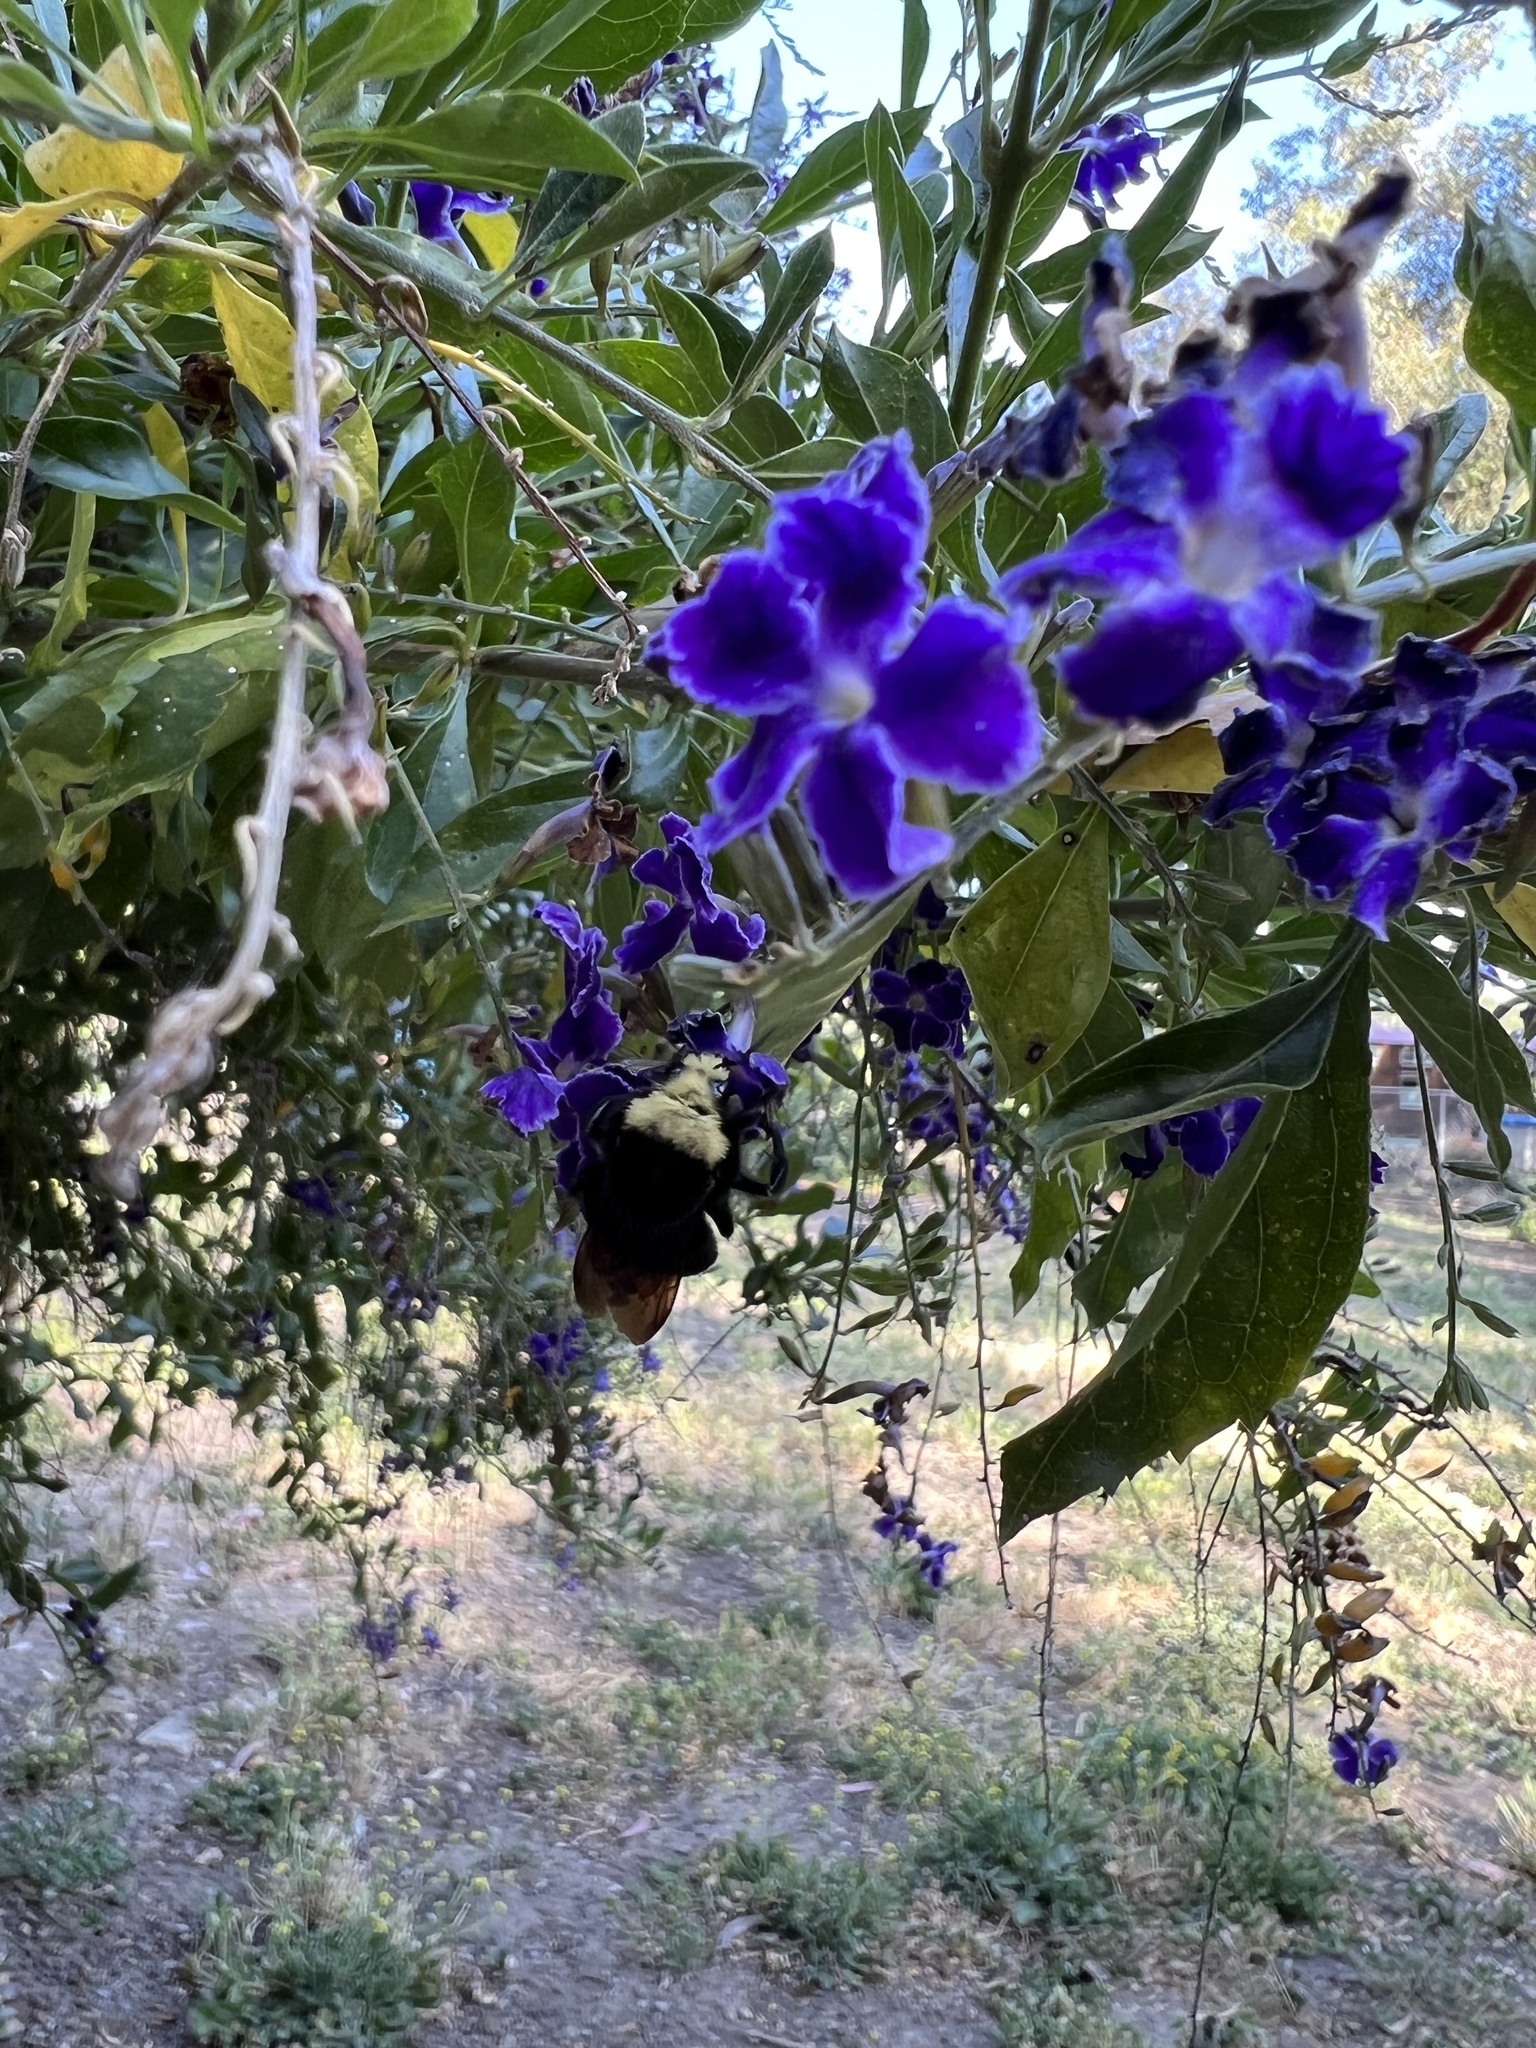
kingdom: Animalia
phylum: Arthropoda
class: Insecta
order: Hymenoptera
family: Apidae
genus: Bombus
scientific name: Bombus vosnesenskii
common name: Vosnesensky bumble bee
